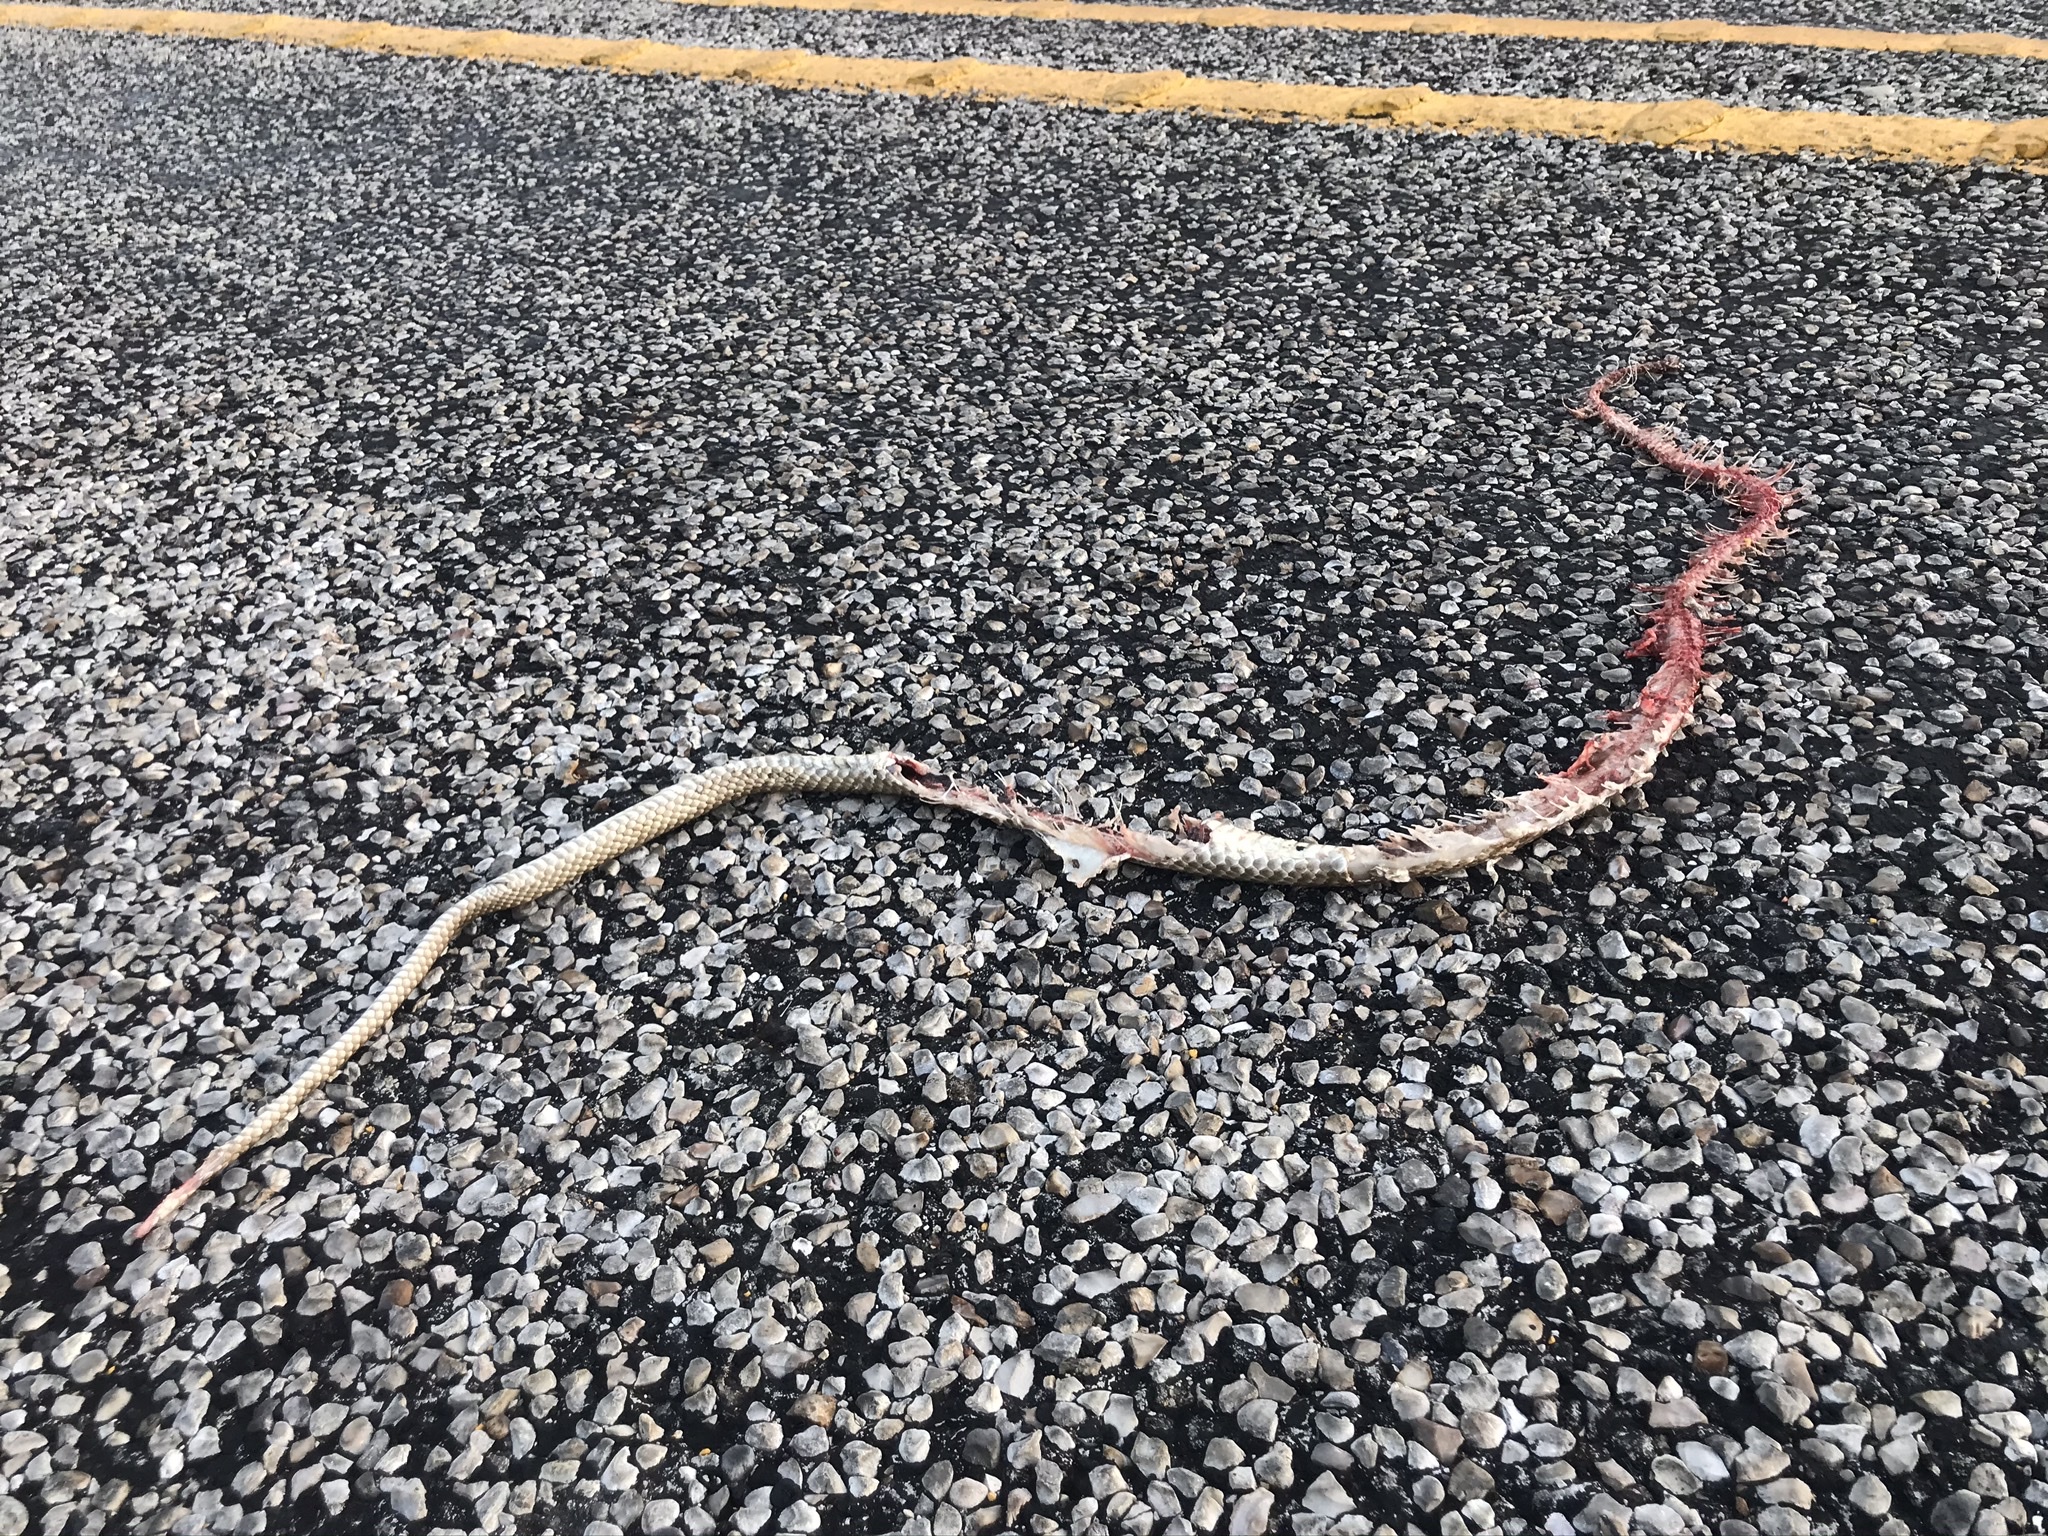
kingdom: Animalia
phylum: Chordata
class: Squamata
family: Colubridae
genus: Masticophis
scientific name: Masticophis flagellum
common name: Coachwhip
